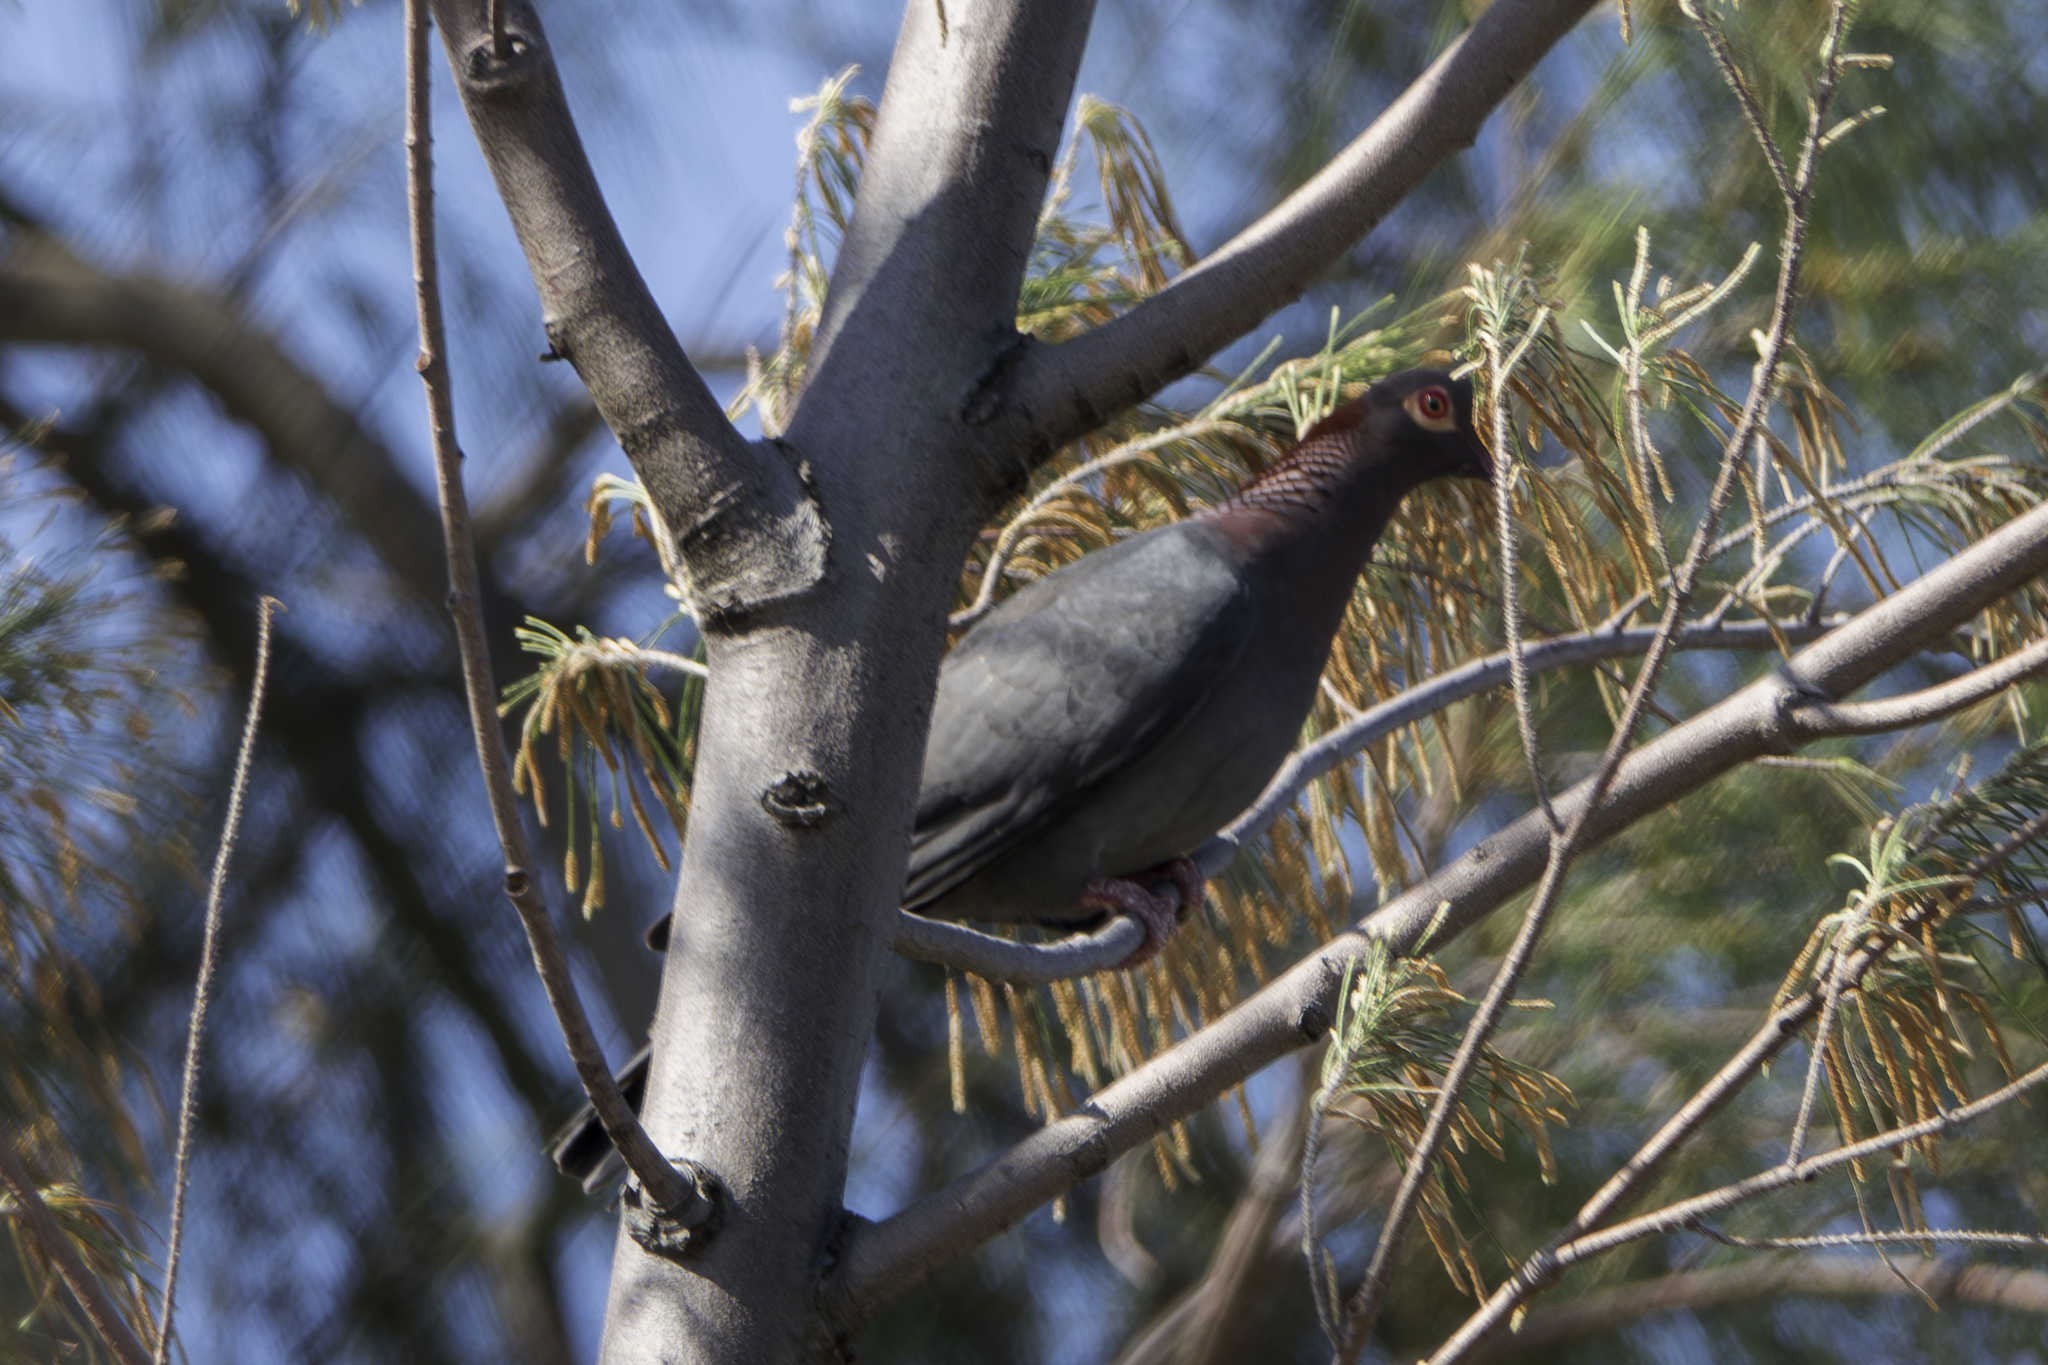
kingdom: Animalia
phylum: Chordata
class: Aves
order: Columbiformes
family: Columbidae
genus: Patagioenas
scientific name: Patagioenas squamosa
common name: Scaly-naped pigeon
